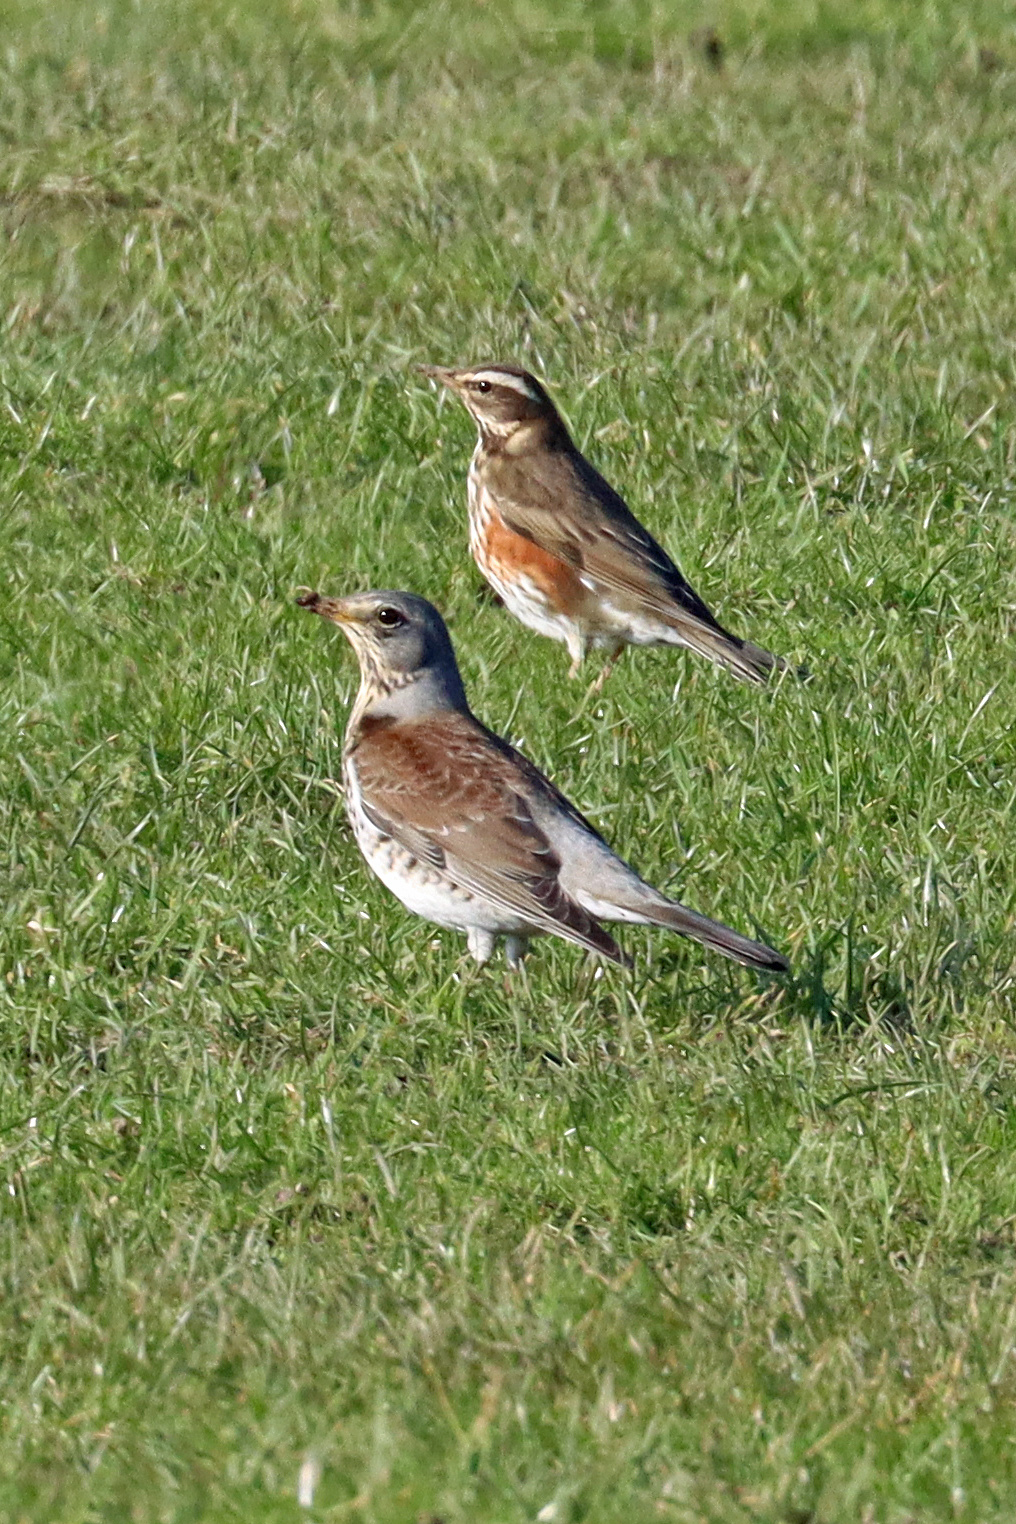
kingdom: Animalia
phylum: Chordata
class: Aves
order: Passeriformes
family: Turdidae
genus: Turdus
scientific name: Turdus pilaris
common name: Fieldfare
